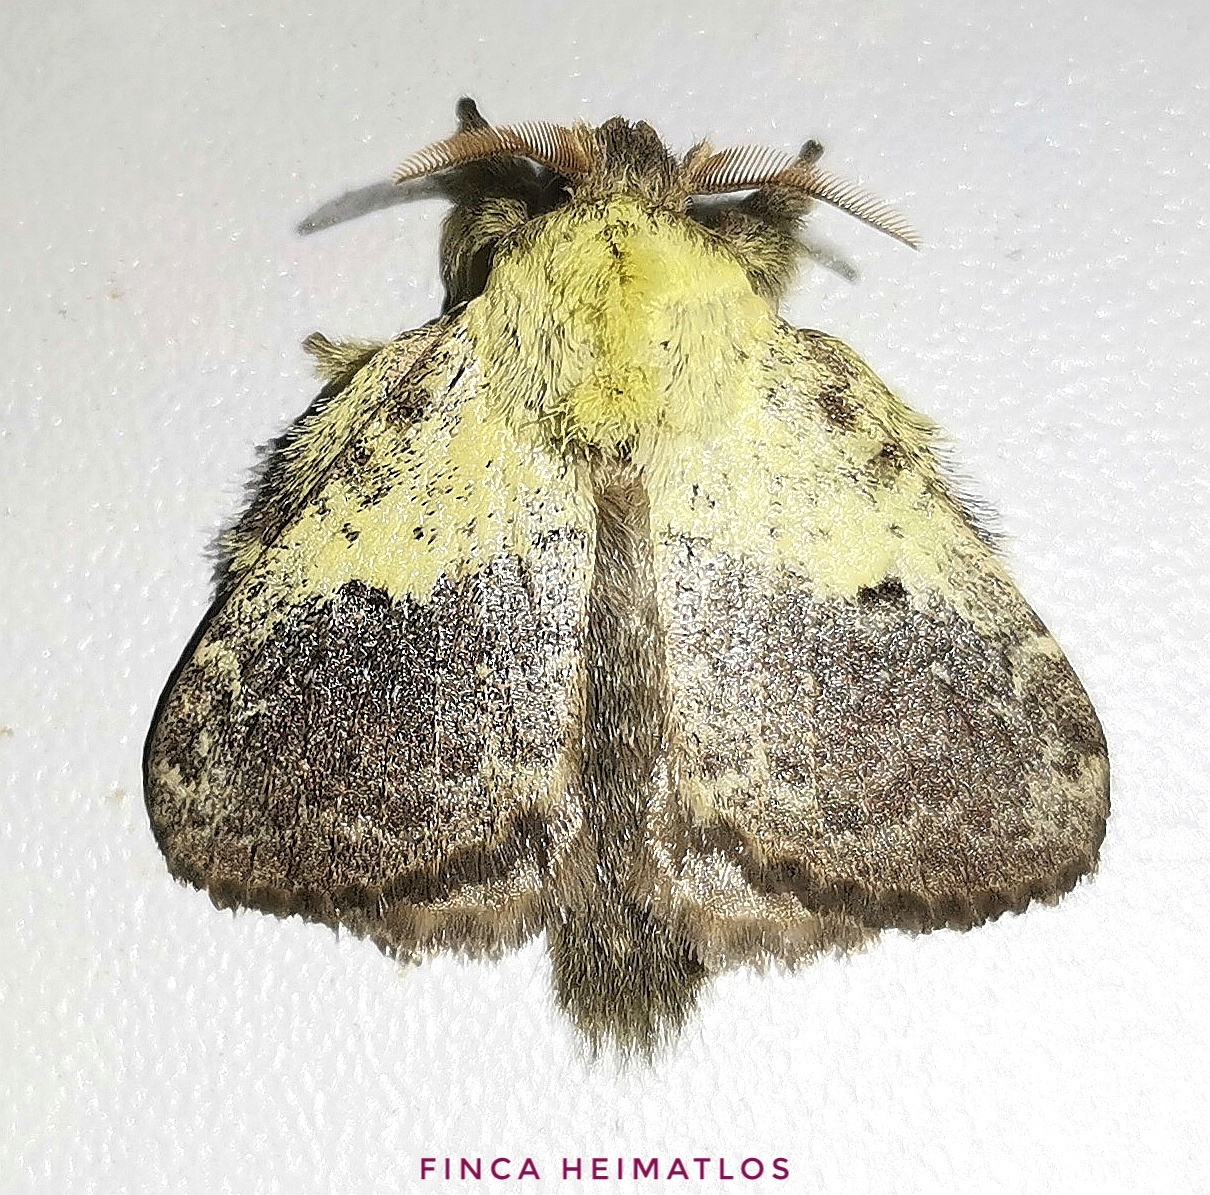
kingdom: Animalia
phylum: Arthropoda
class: Insecta
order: Lepidoptera
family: Lasiocampidae
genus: Euglyphis
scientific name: Euglyphis primola
